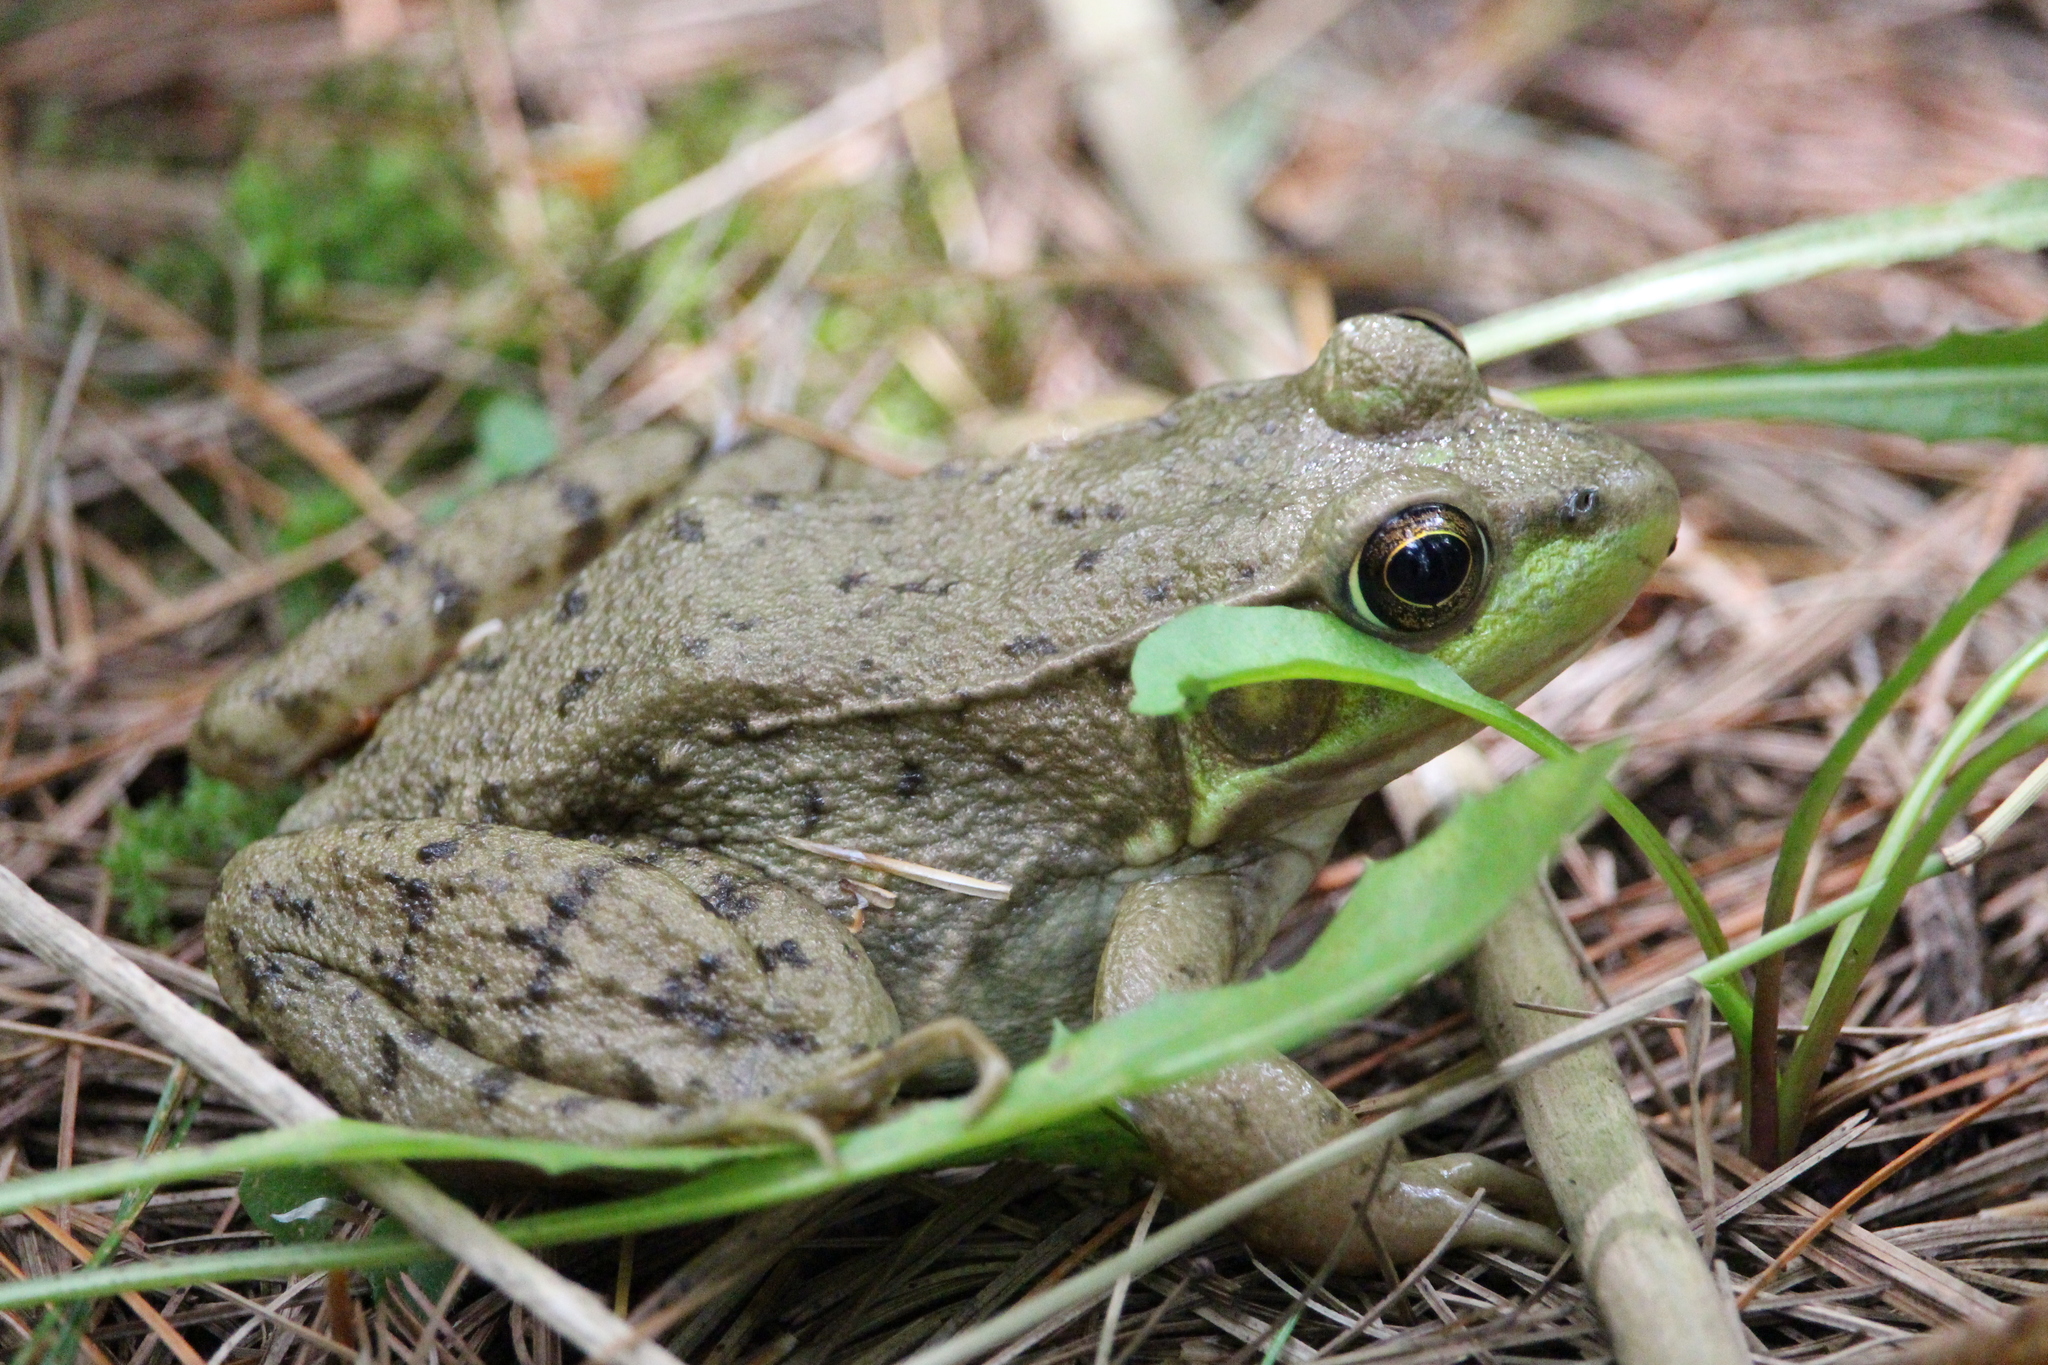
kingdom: Animalia
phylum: Chordata
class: Amphibia
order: Anura
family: Ranidae
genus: Lithobates
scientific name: Lithobates clamitans
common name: Green frog
